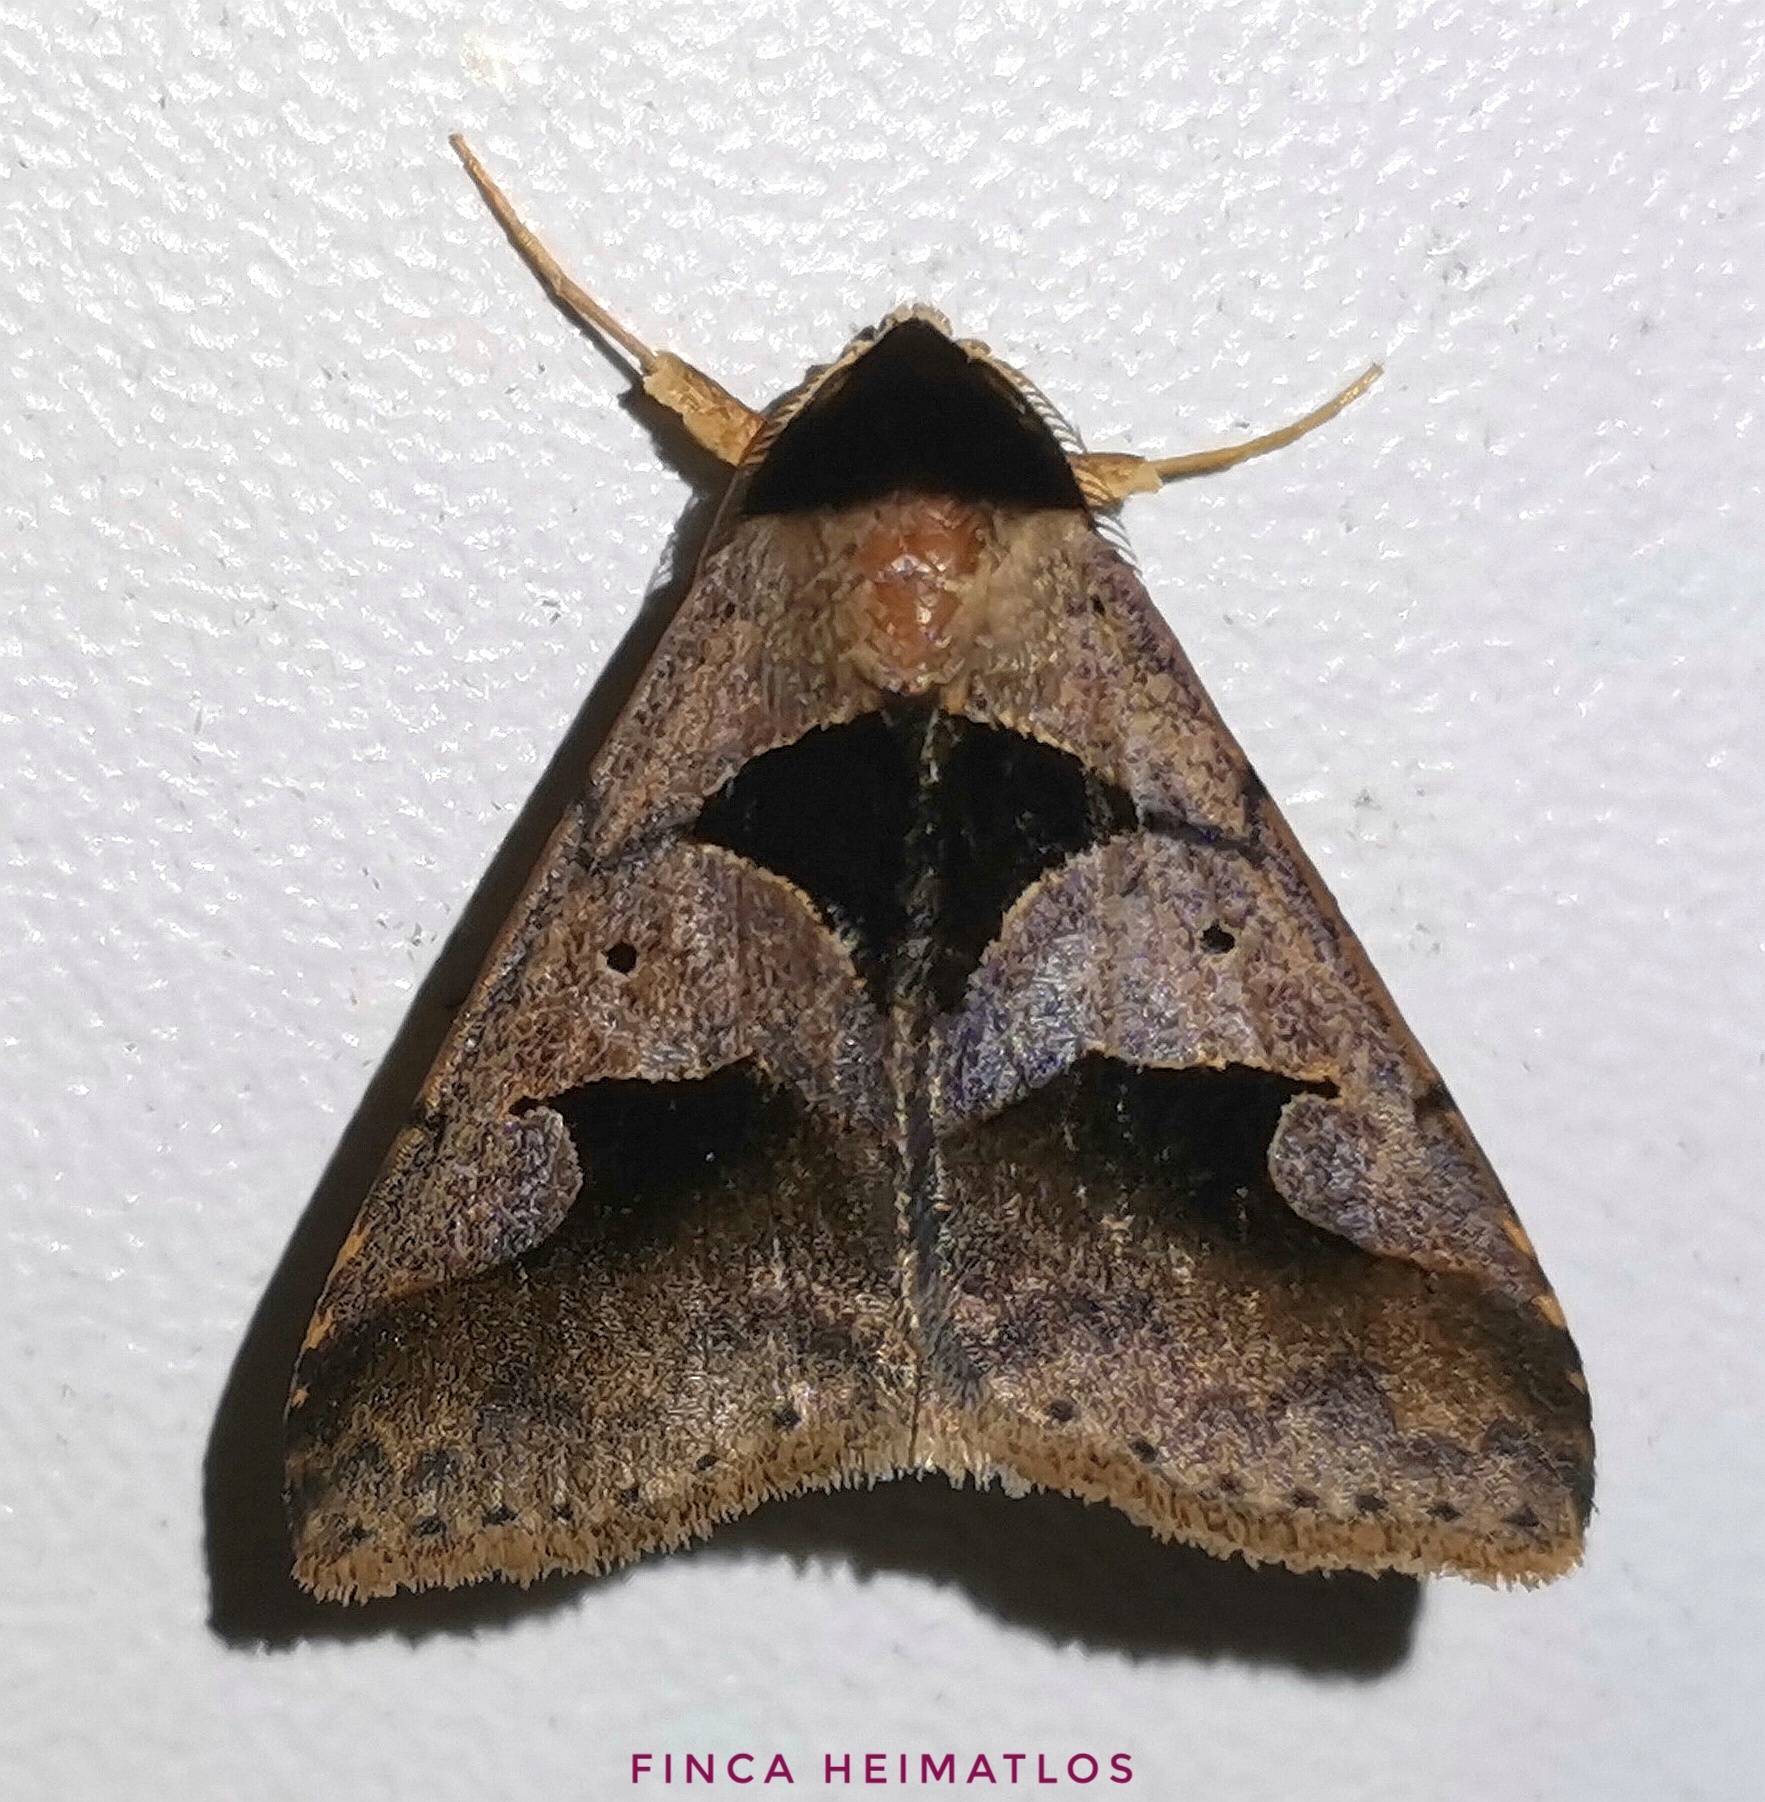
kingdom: Animalia
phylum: Arthropoda
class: Insecta
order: Lepidoptera
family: Erebidae
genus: Anoba
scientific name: Anoba trigonoides
